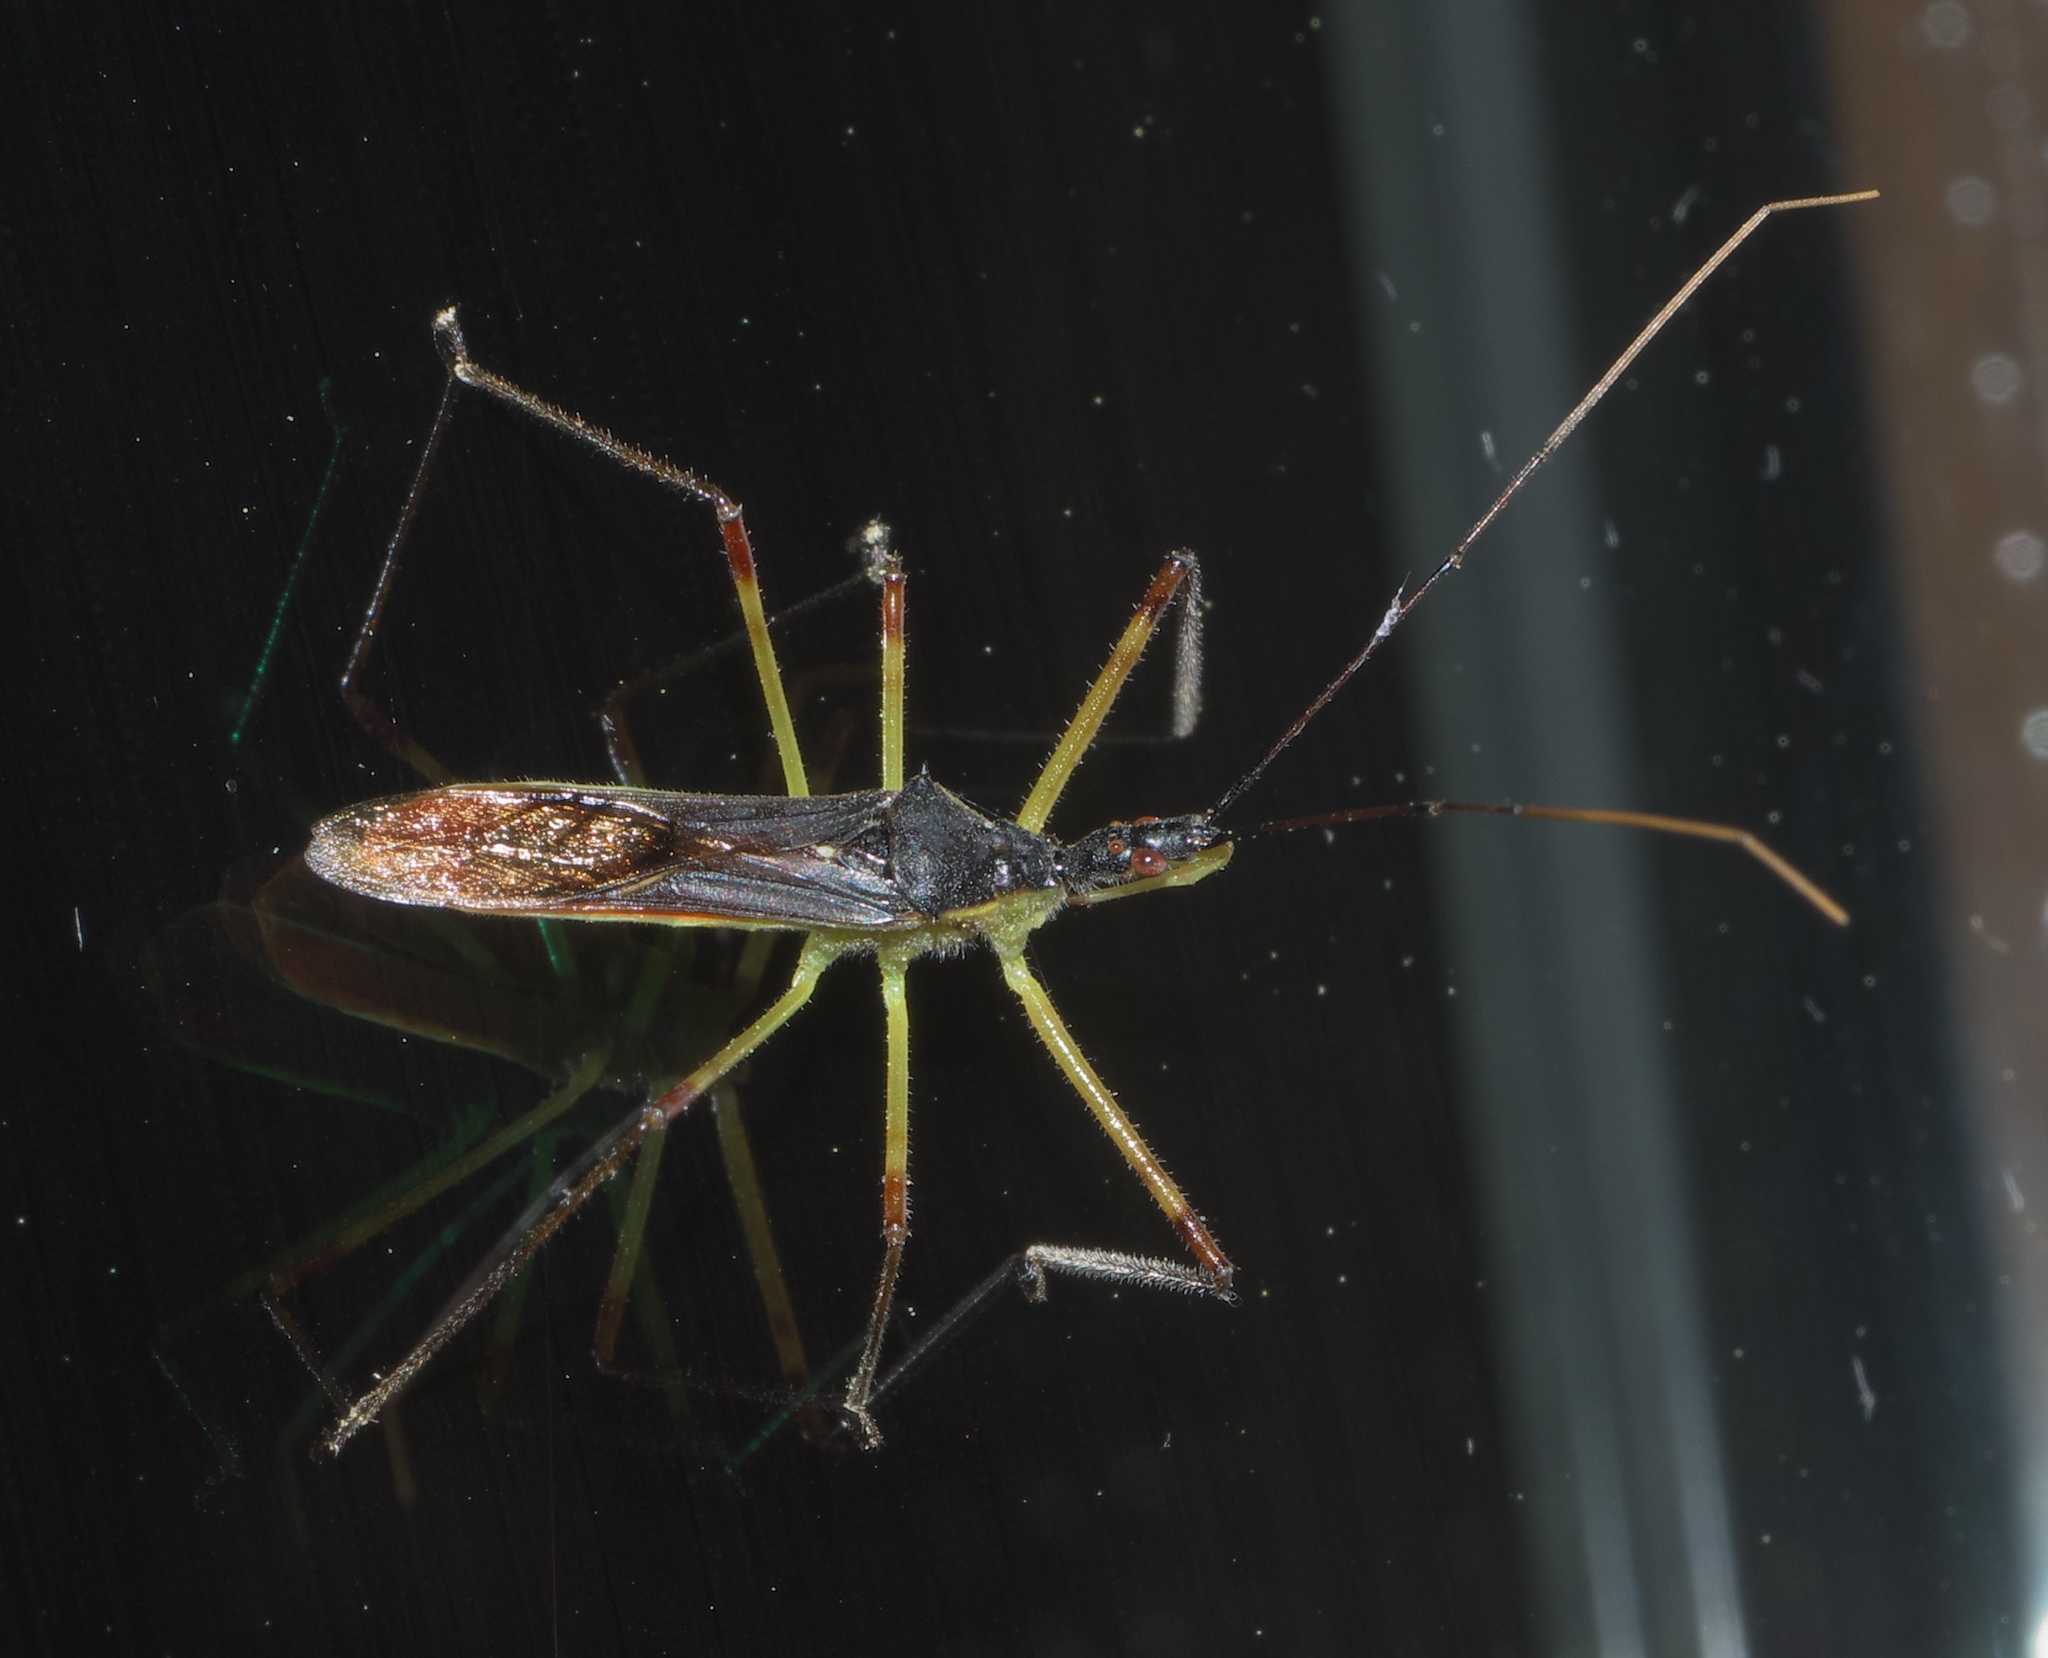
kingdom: Animalia
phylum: Arthropoda
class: Insecta
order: Hemiptera
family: Reduviidae
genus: Zelus
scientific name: Zelus luridus
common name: Pale green assassin bug
